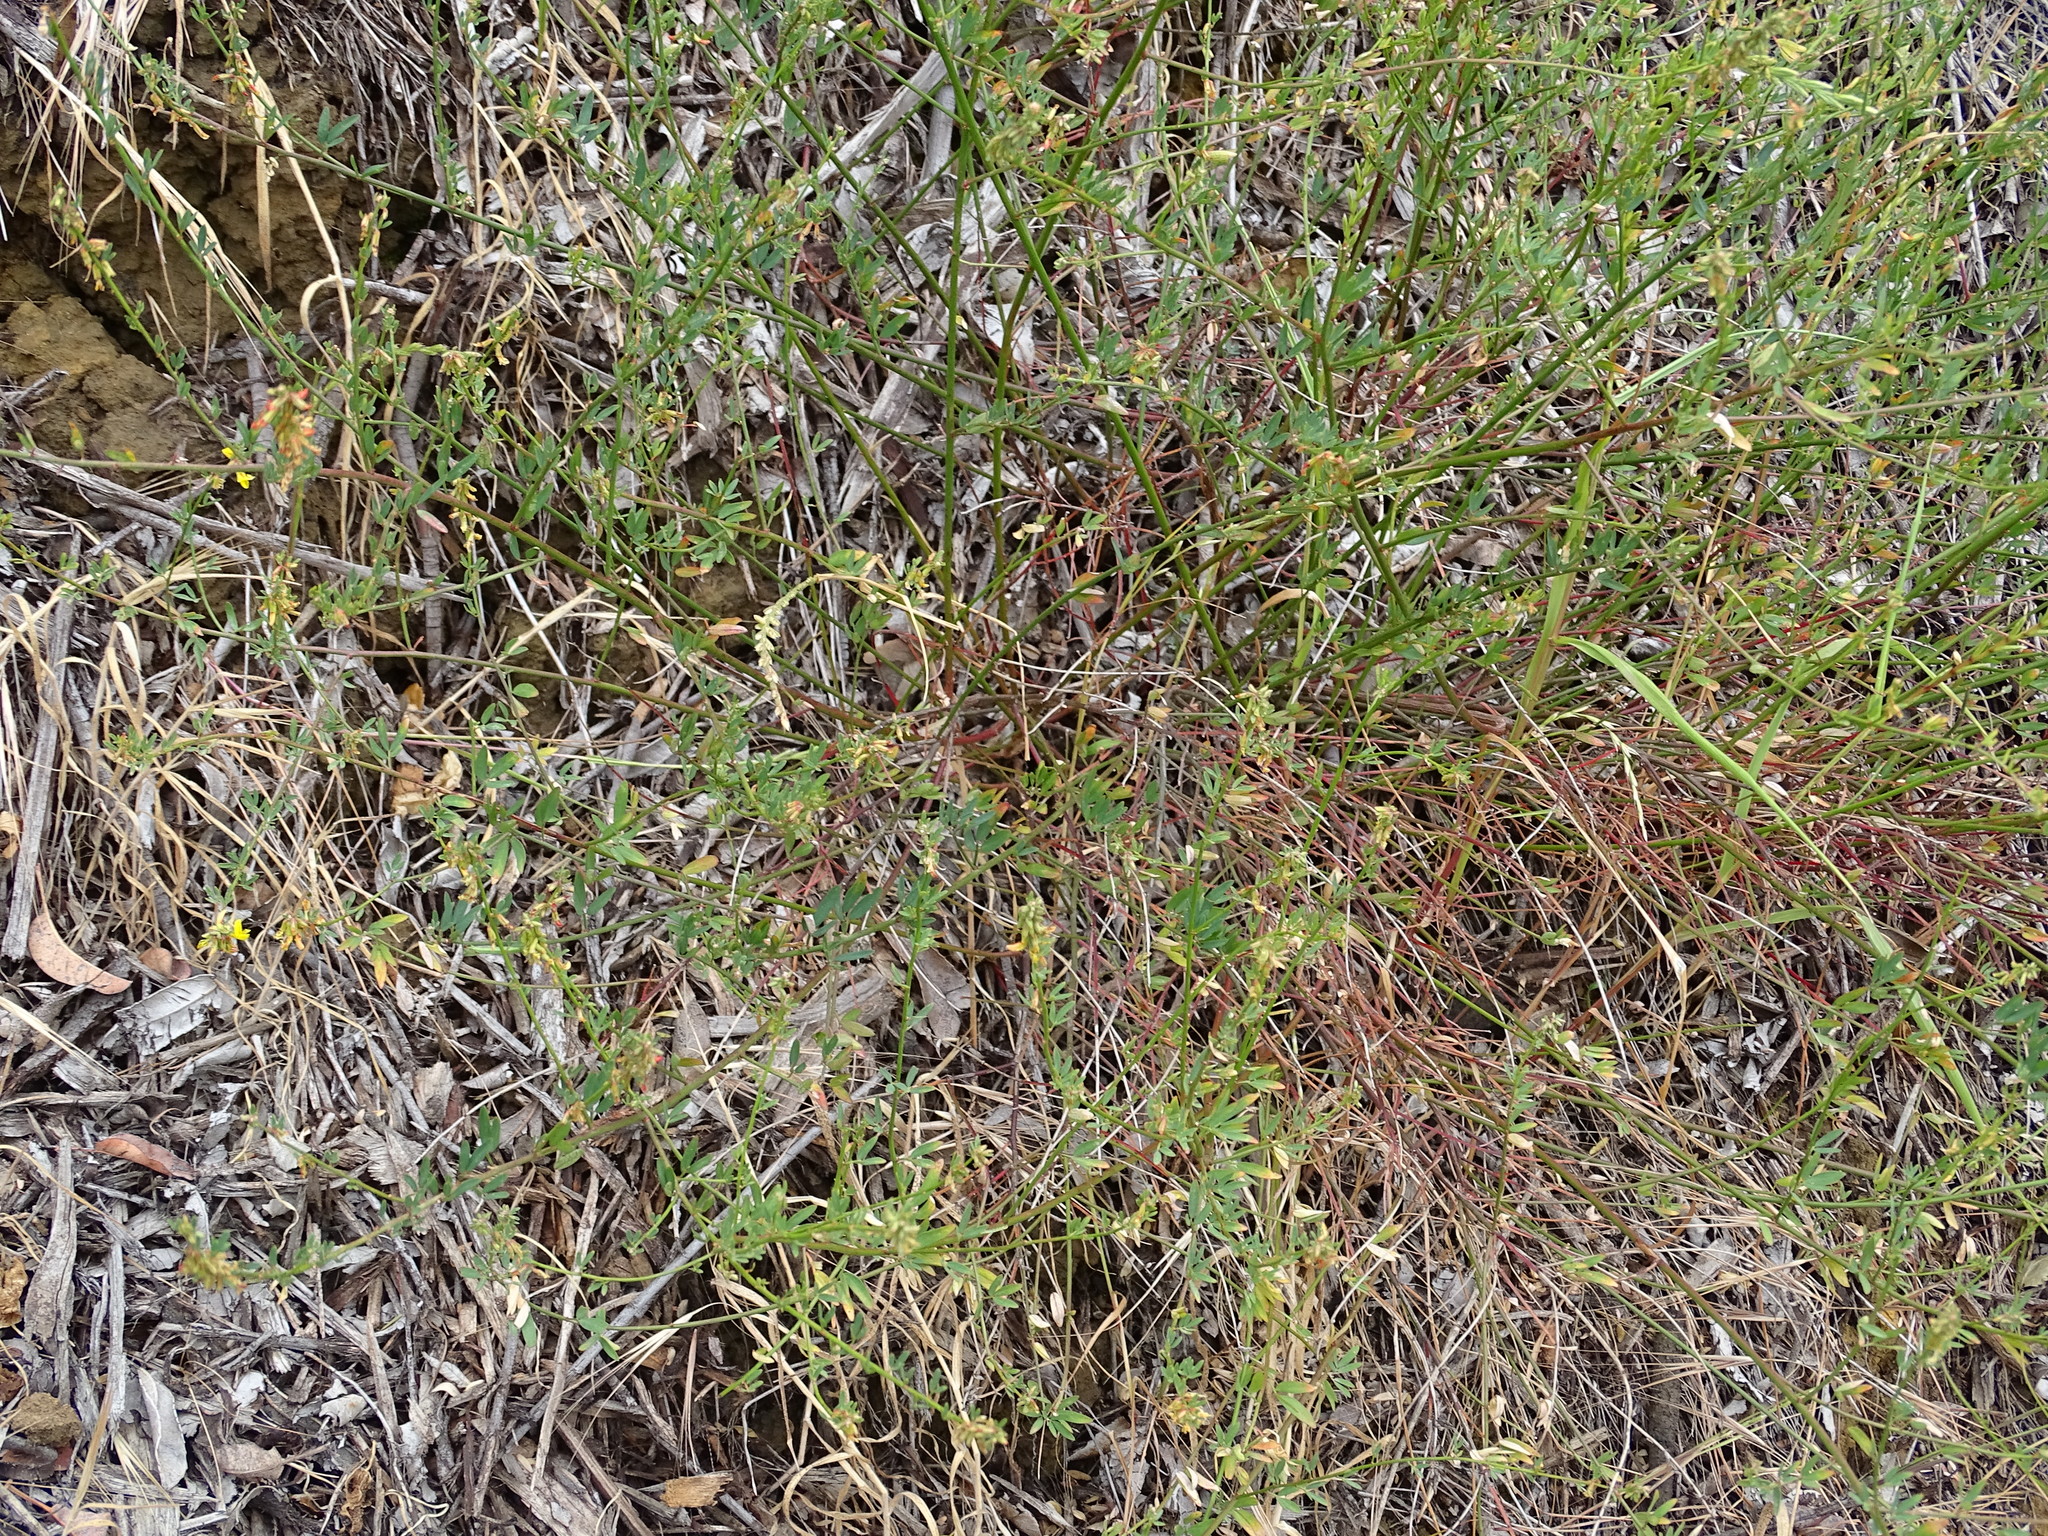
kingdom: Plantae
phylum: Tracheophyta
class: Magnoliopsida
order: Fabales
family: Fabaceae
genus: Acmispon
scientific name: Acmispon glaber
